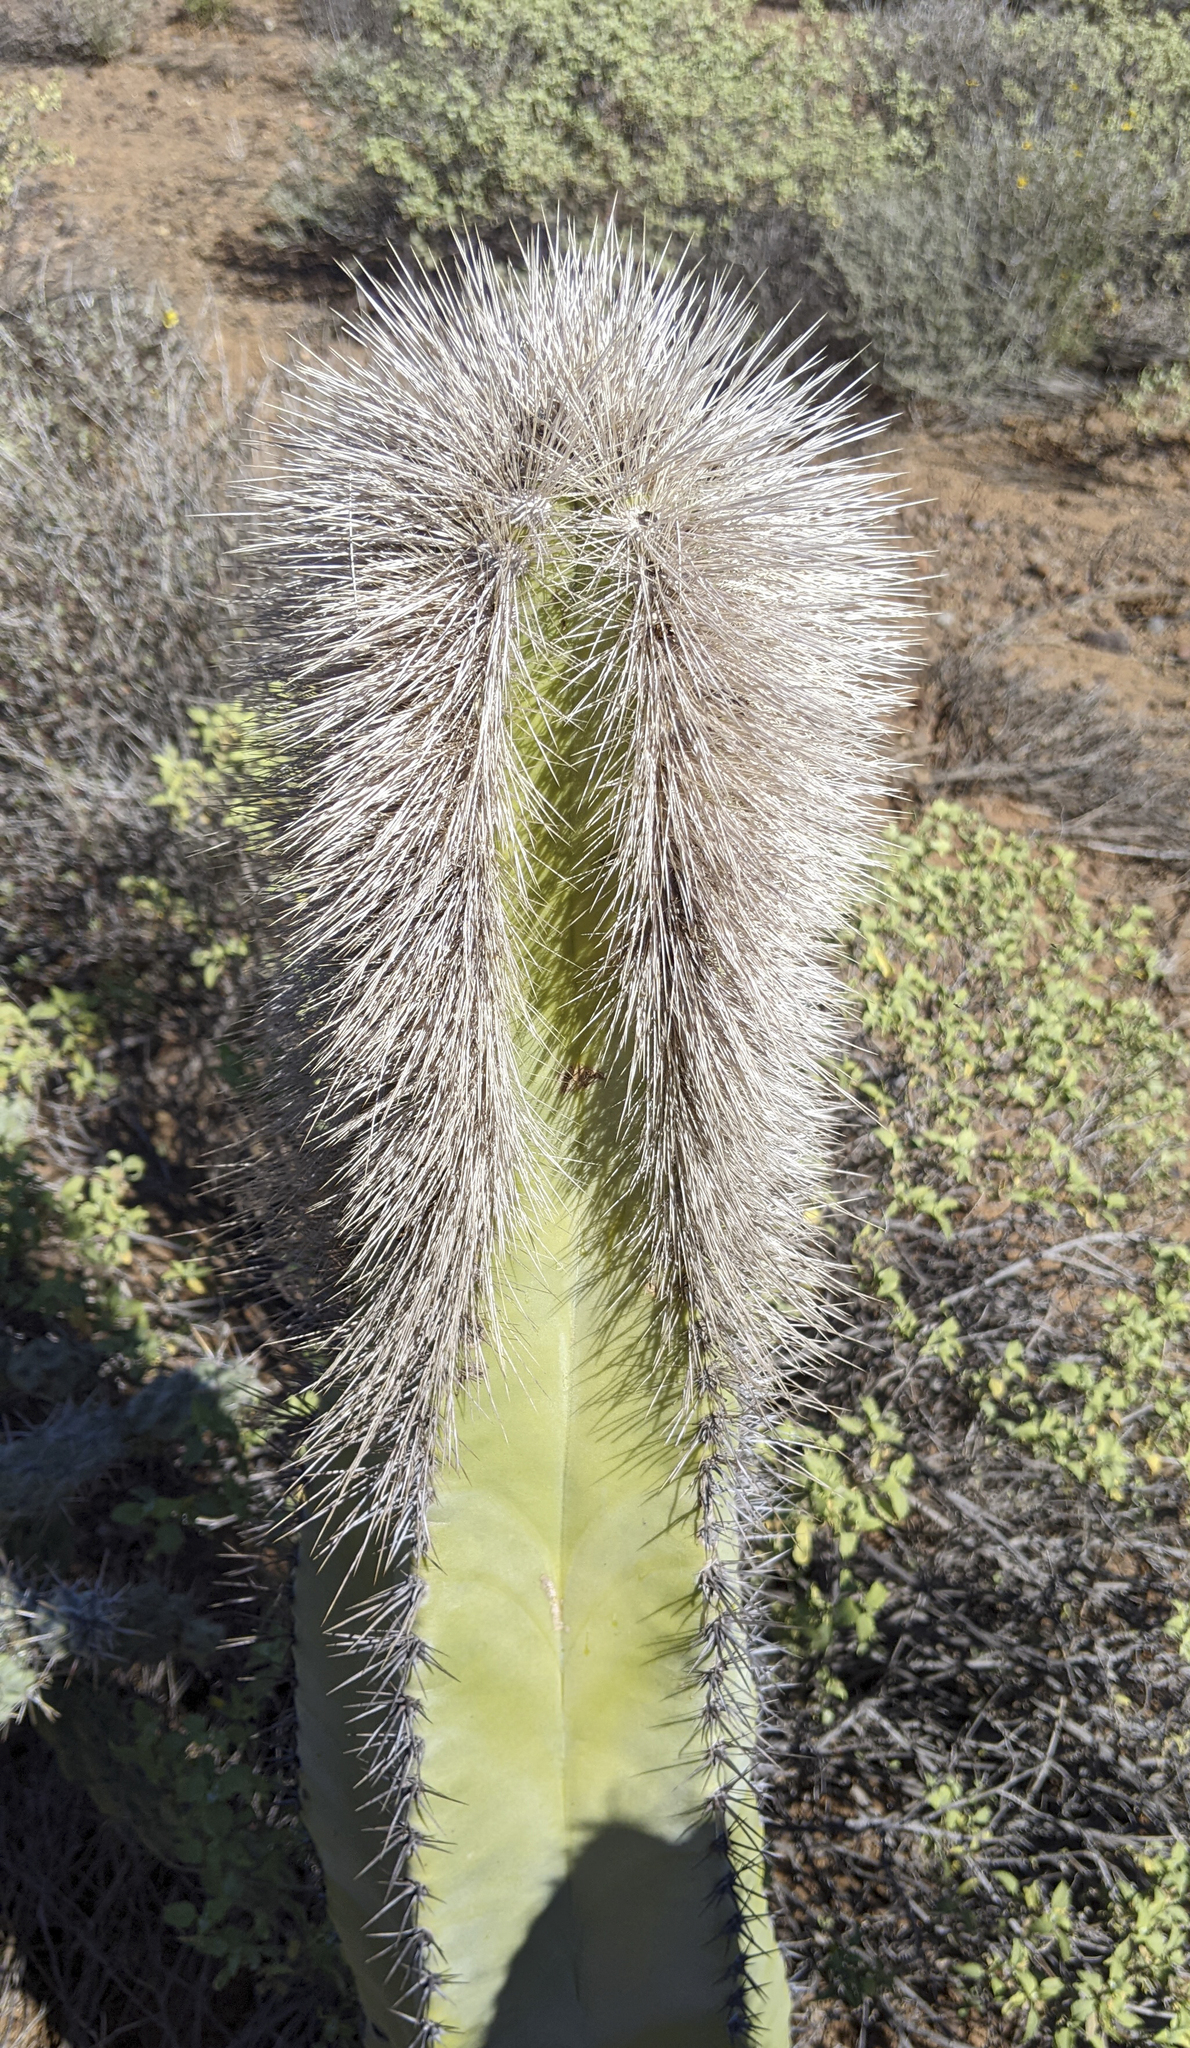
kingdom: Plantae
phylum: Tracheophyta
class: Magnoliopsida
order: Caryophyllales
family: Cactaceae
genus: Pachycereus
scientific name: Pachycereus schottii
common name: Senita cactus
